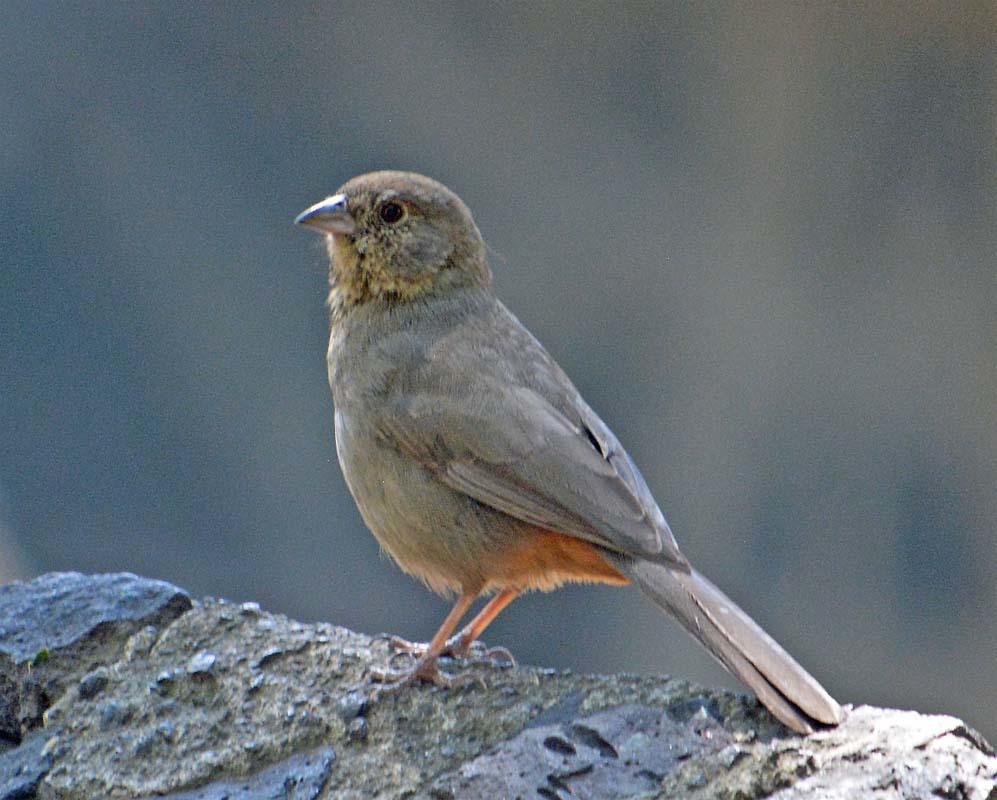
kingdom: Animalia
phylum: Chordata
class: Aves
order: Passeriformes
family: Passerellidae
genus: Melozone
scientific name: Melozone fusca
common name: Canyon towhee
